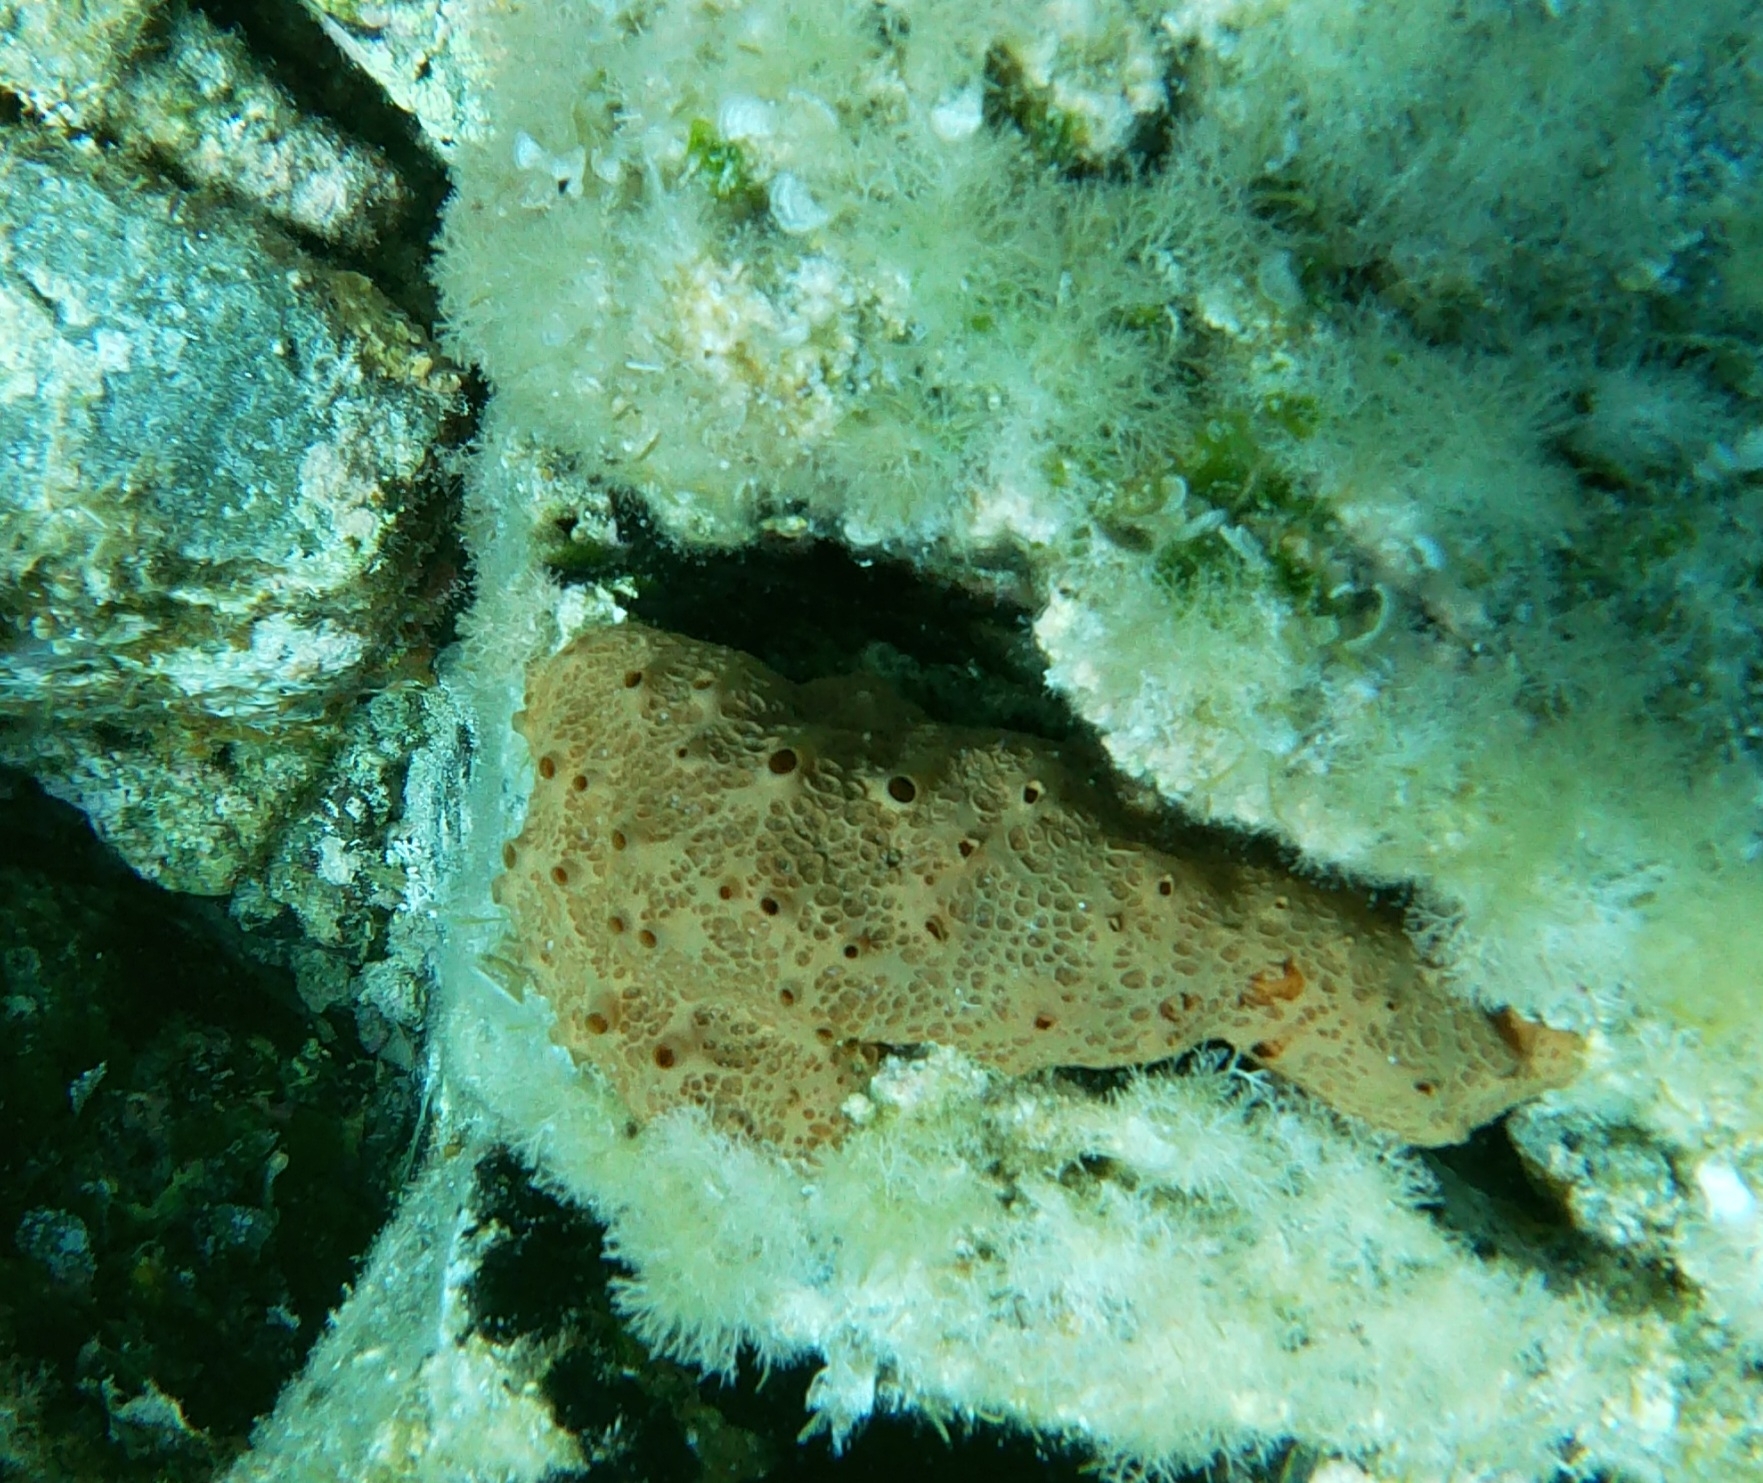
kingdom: Animalia
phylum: Porifera
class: Demospongiae
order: Poecilosclerida
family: Hymedesmiidae
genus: Hemimycale
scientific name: Hemimycale columella
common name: Crater sponge
